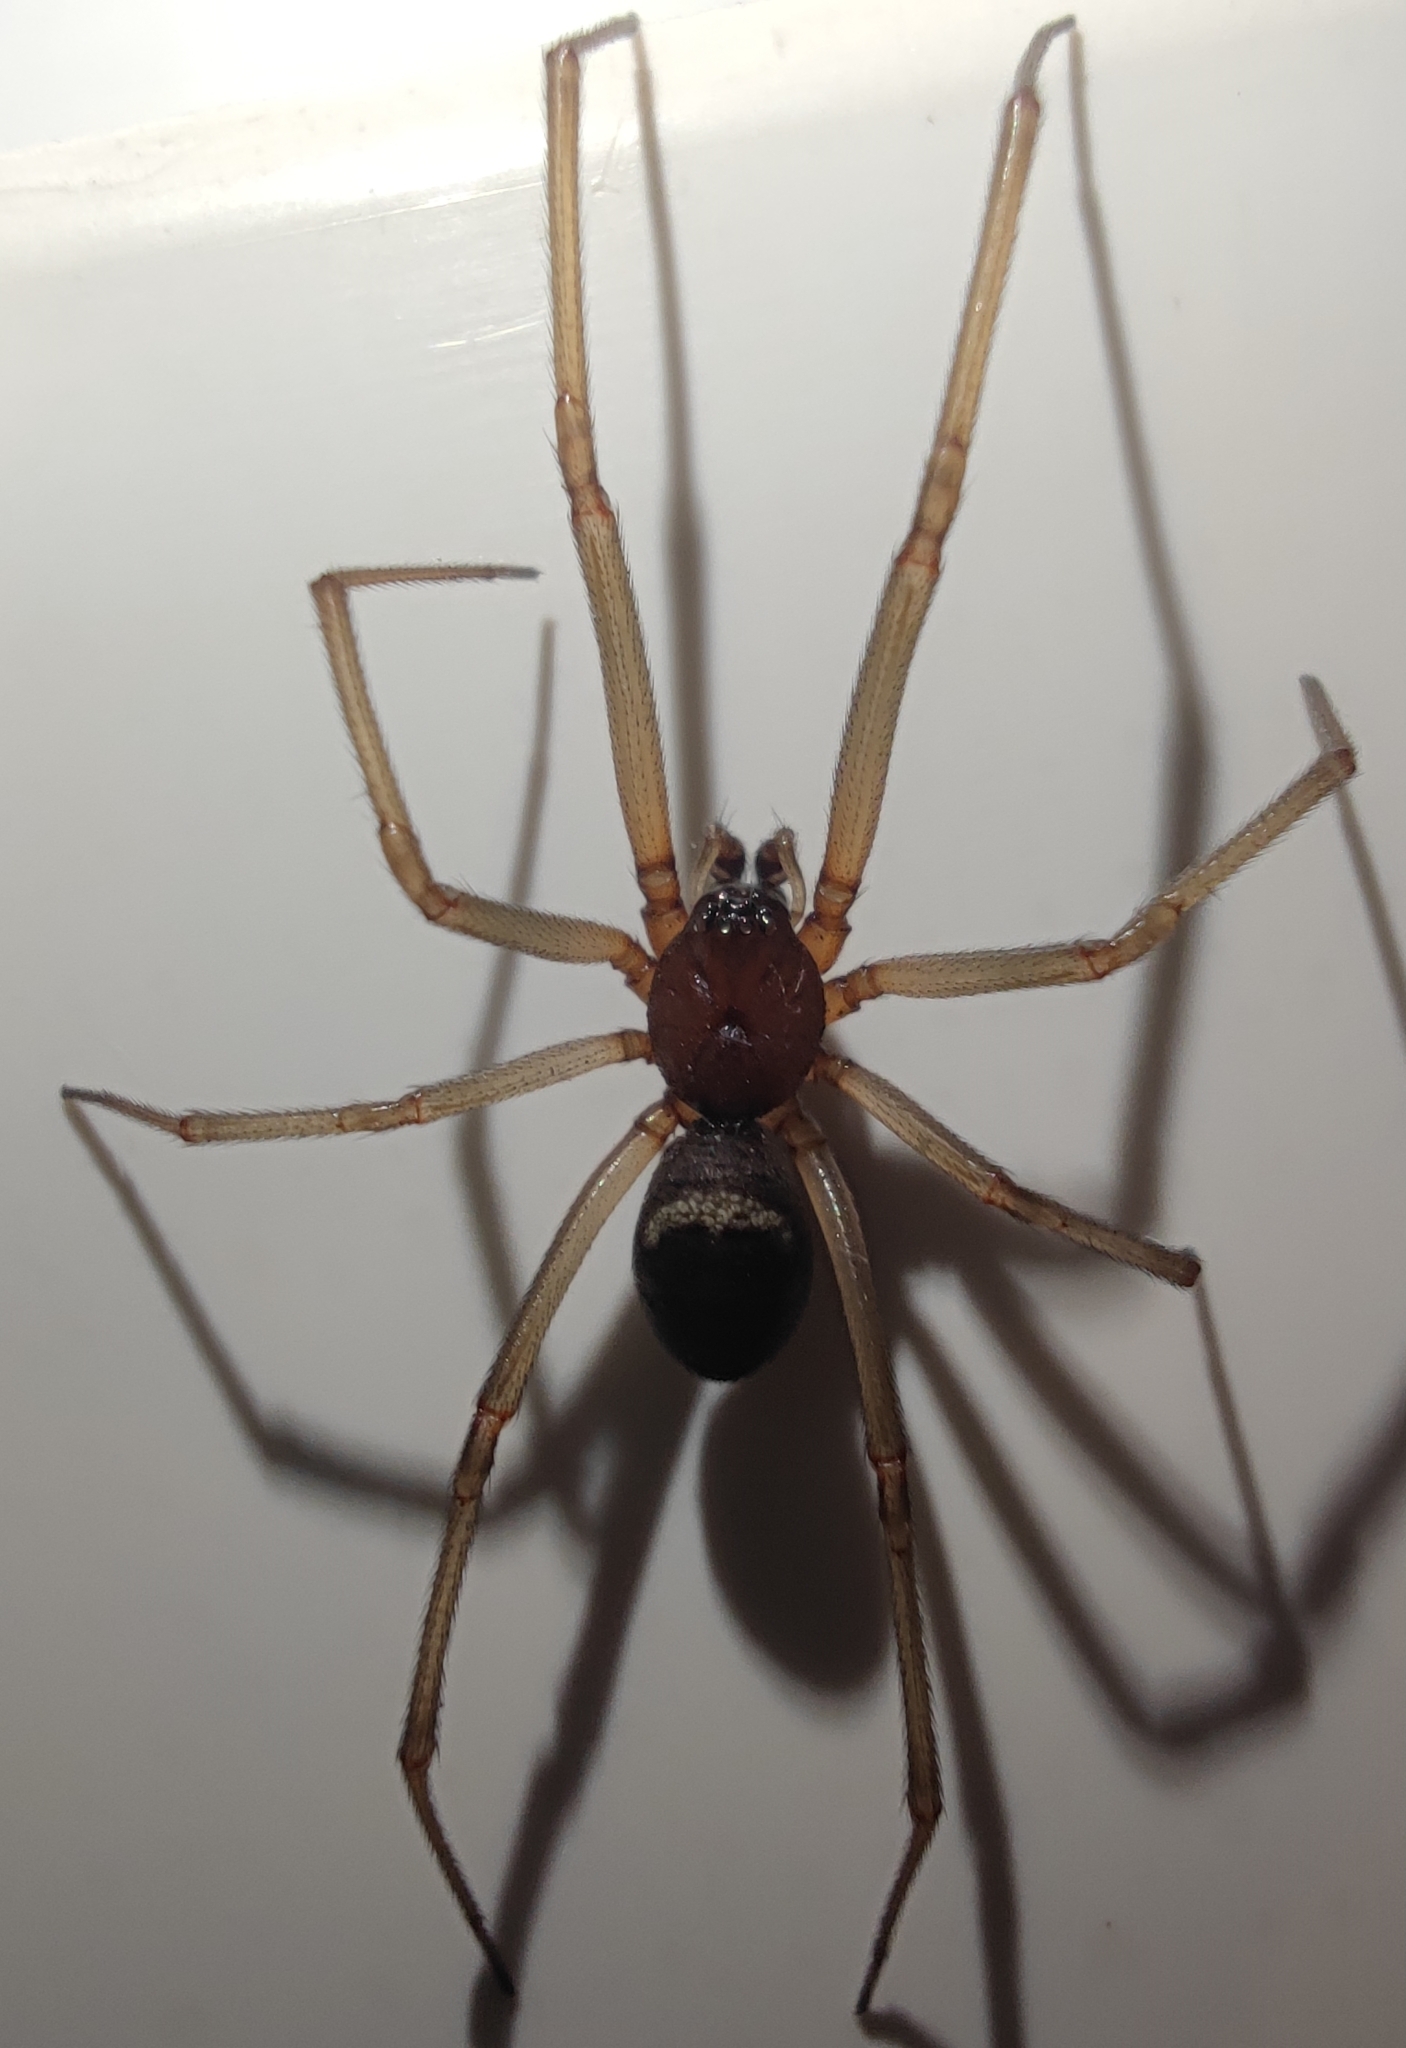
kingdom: Animalia
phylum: Arthropoda
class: Arachnida
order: Araneae
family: Theridiidae
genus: Steatoda
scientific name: Steatoda grossa
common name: False black widow
